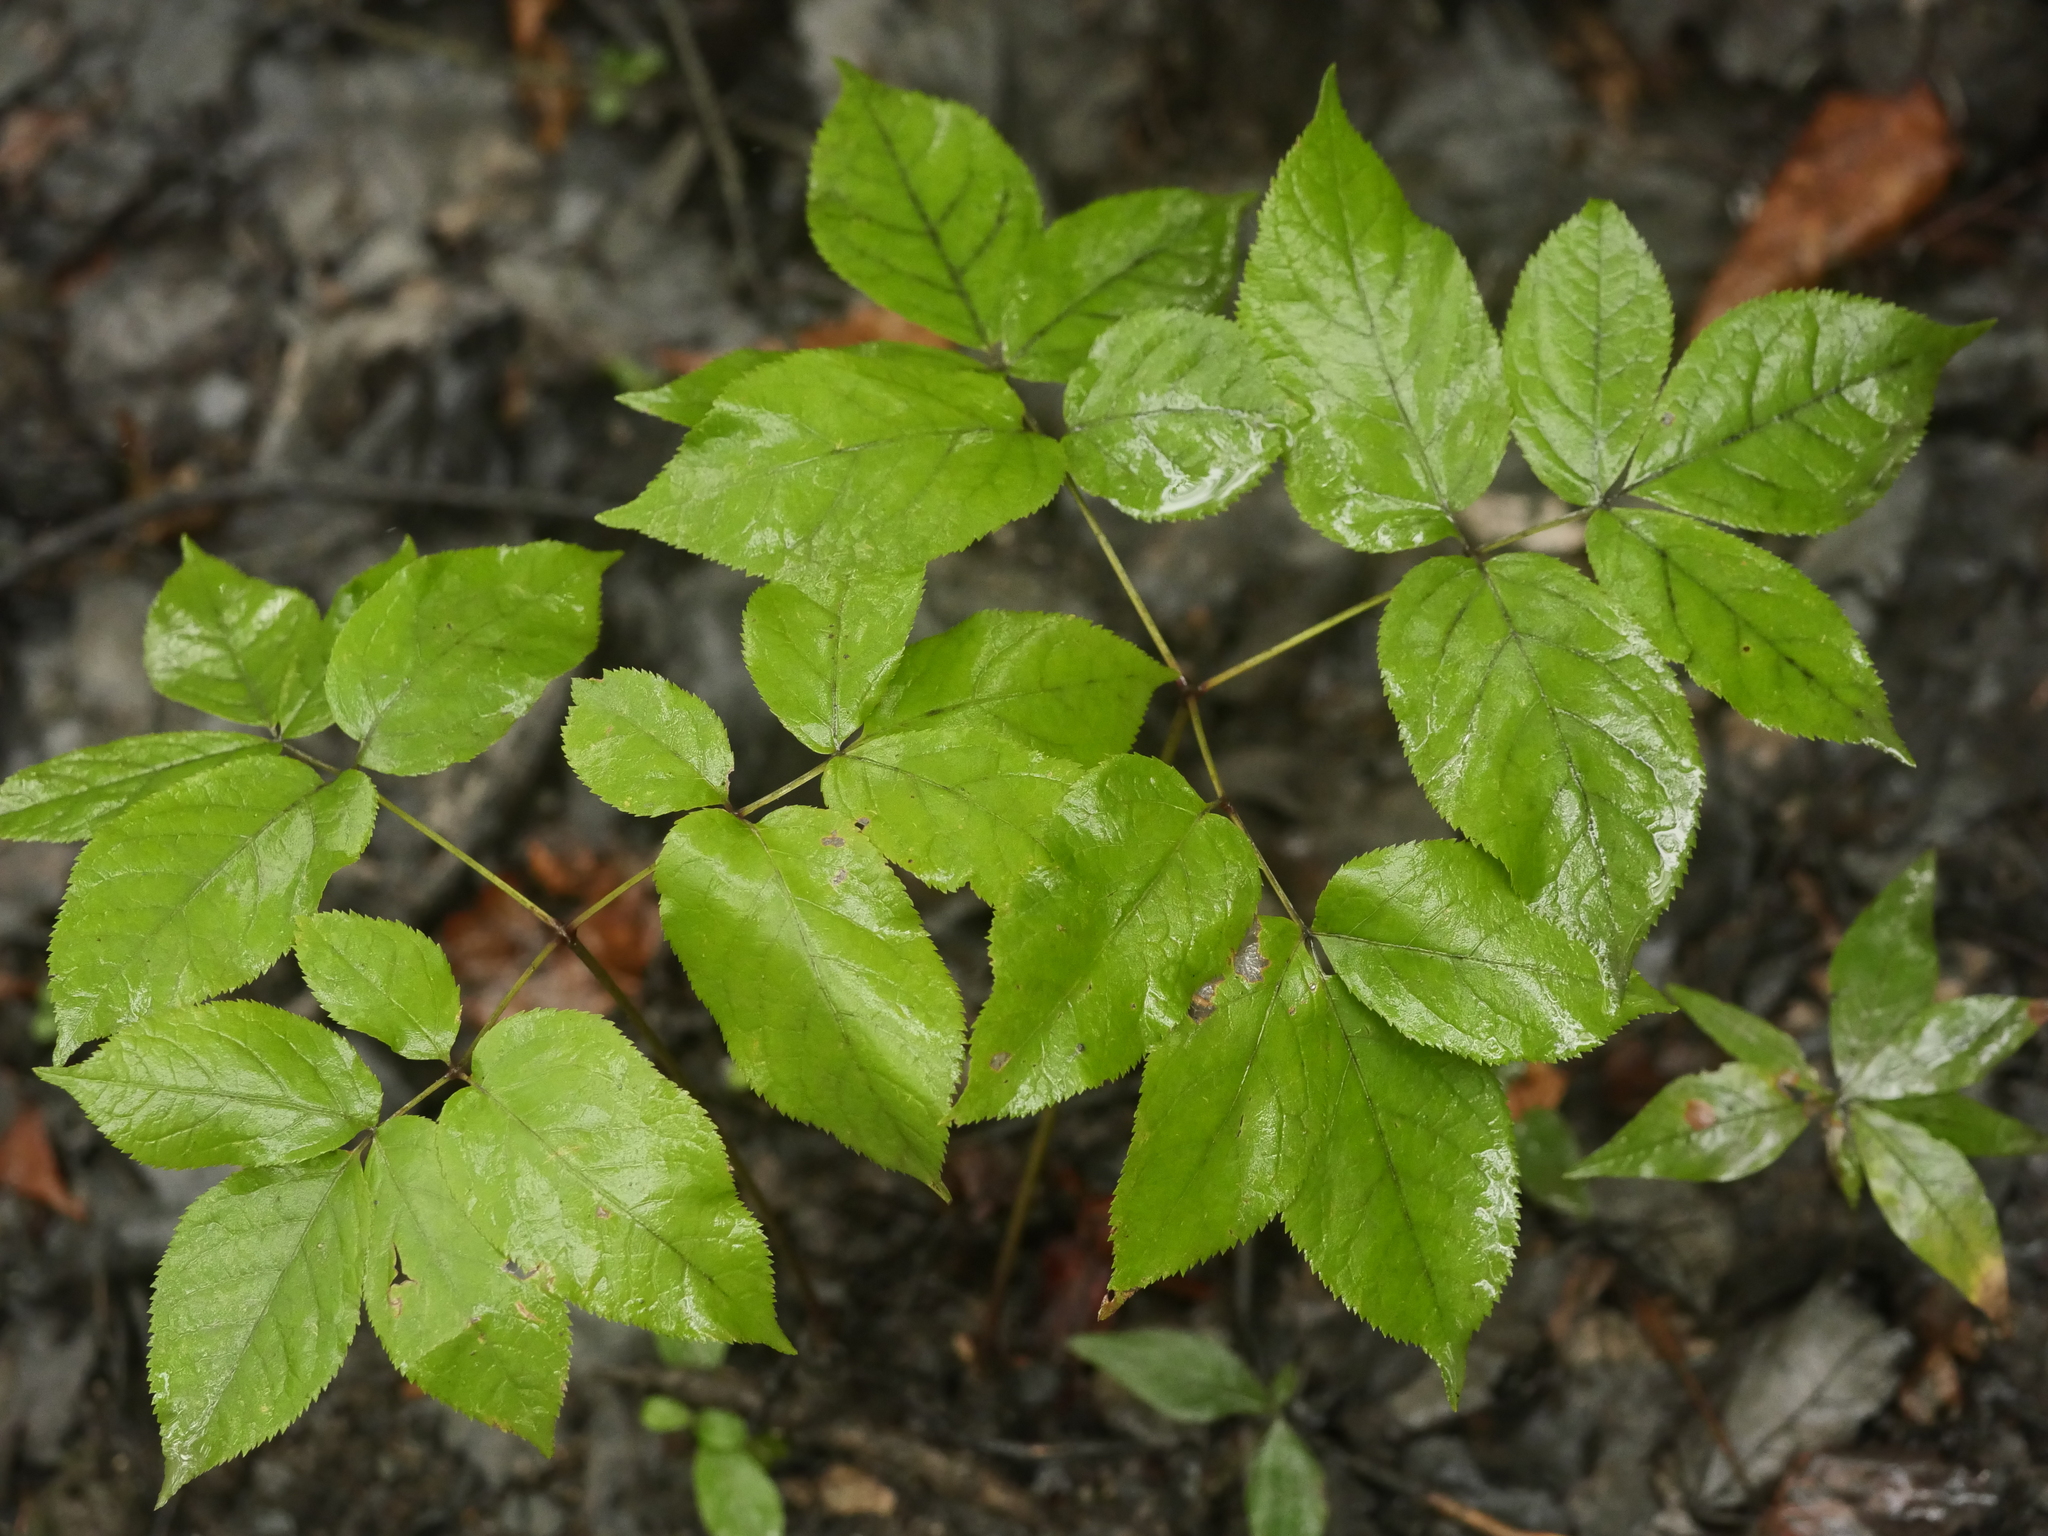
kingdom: Plantae
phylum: Tracheophyta
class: Magnoliopsida
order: Apiales
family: Araliaceae
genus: Aralia
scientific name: Aralia nudicaulis
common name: Wild sarsaparilla
